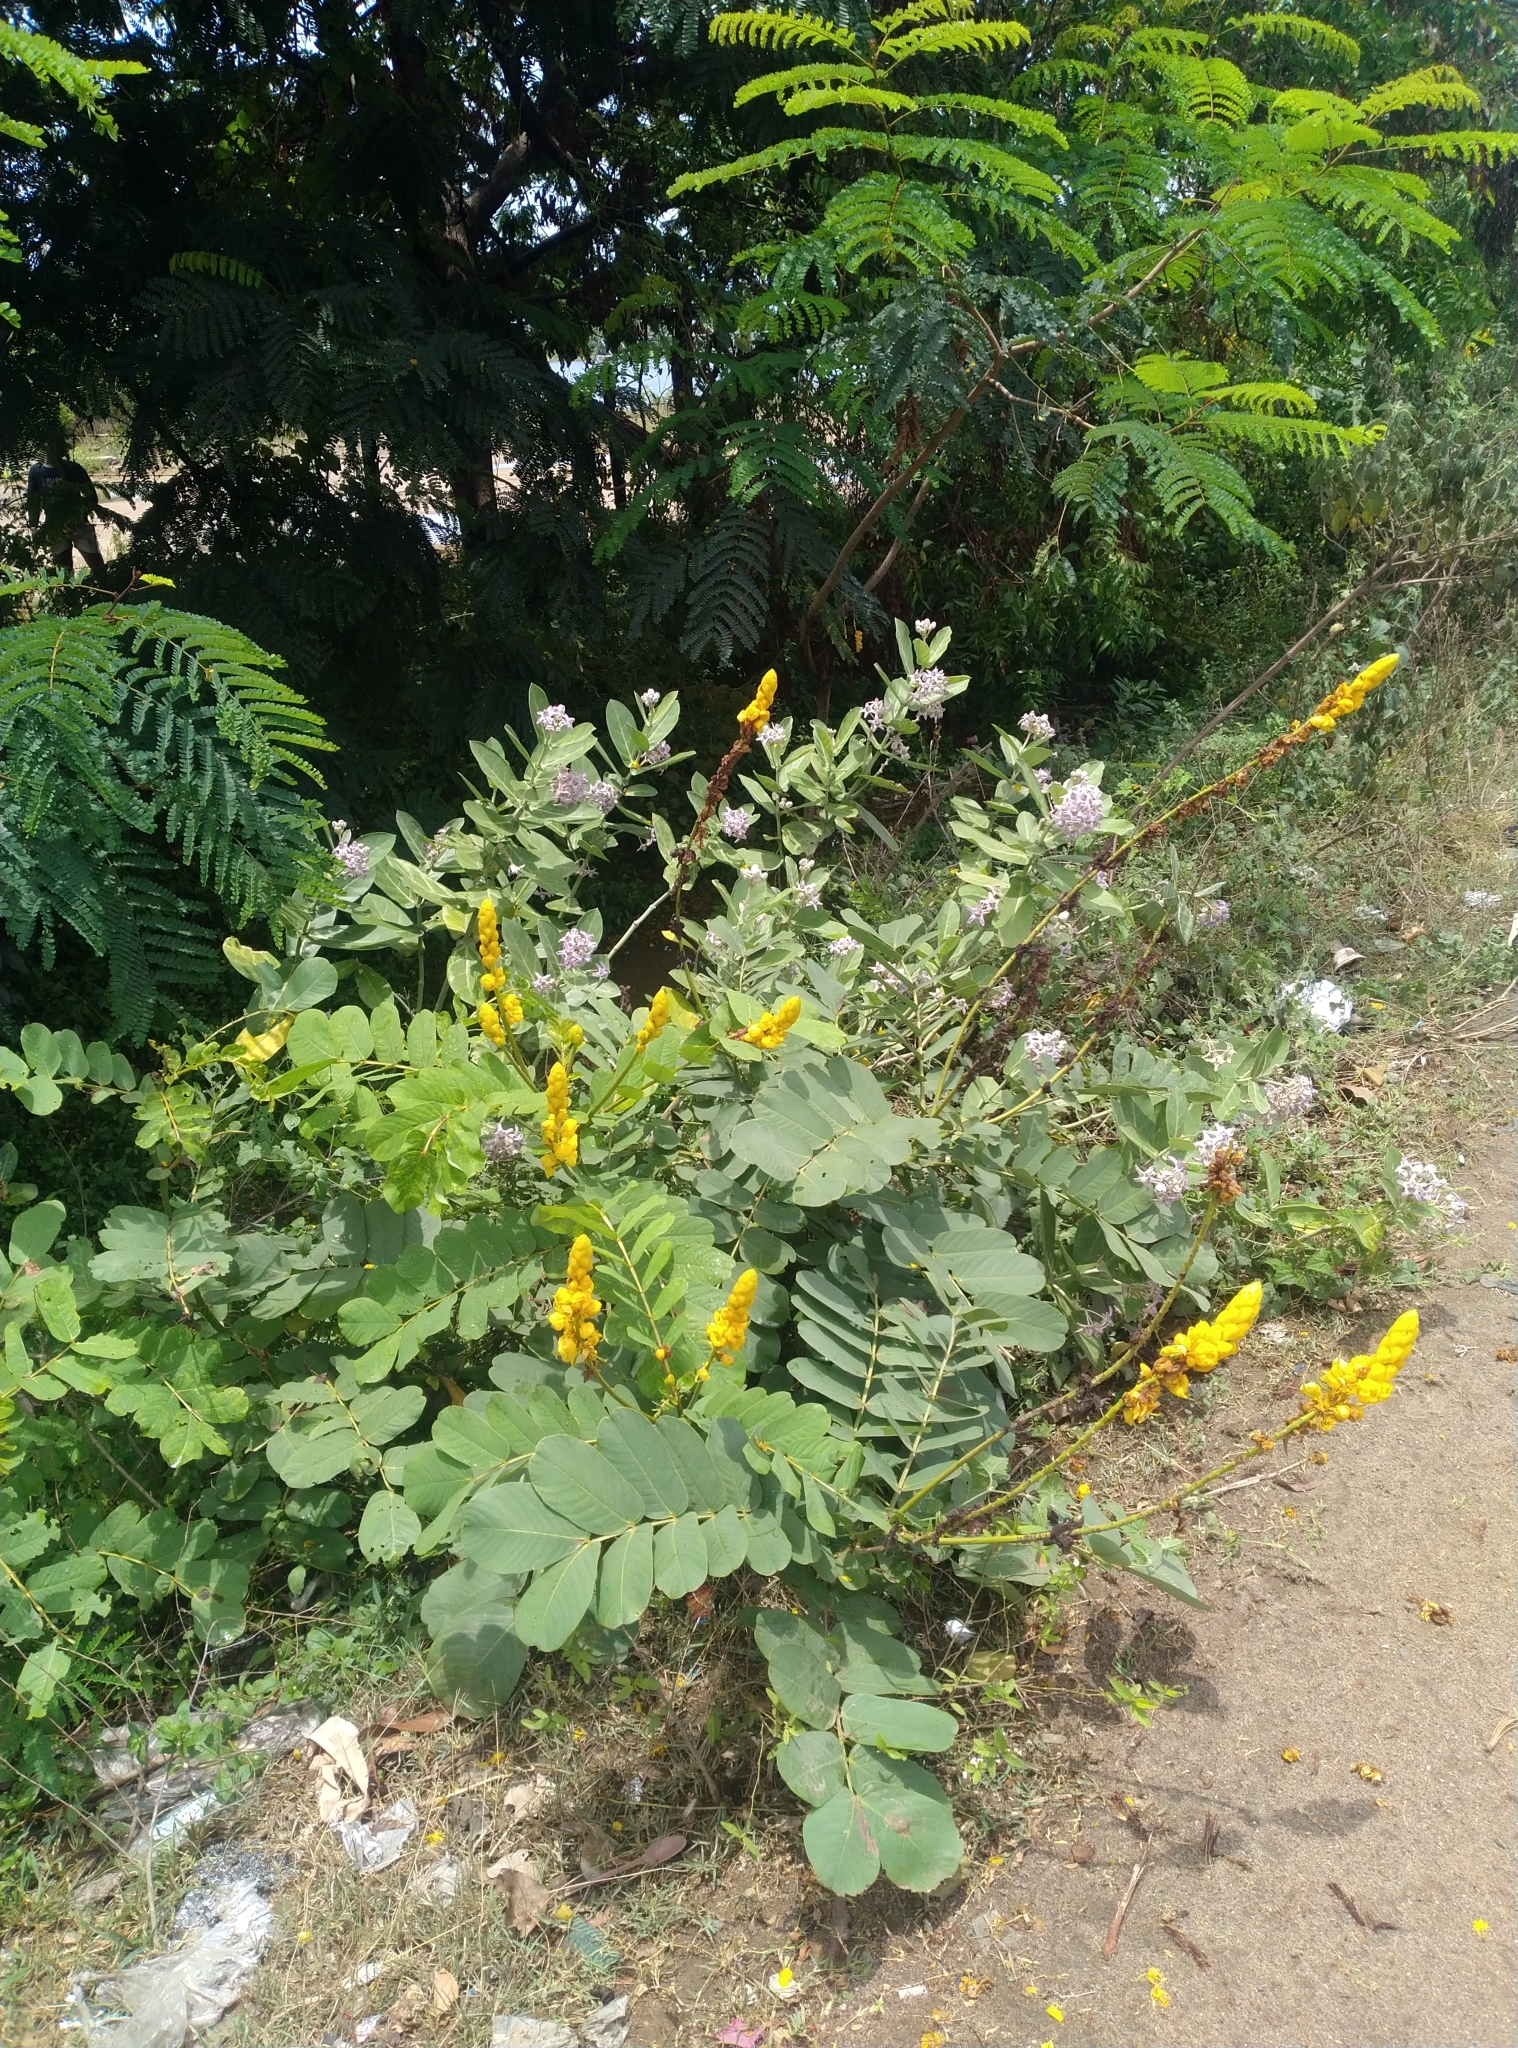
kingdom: Plantae
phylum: Tracheophyta
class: Magnoliopsida
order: Fabales
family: Fabaceae
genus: Senna
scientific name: Senna alata
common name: Emperor's candlesticks
